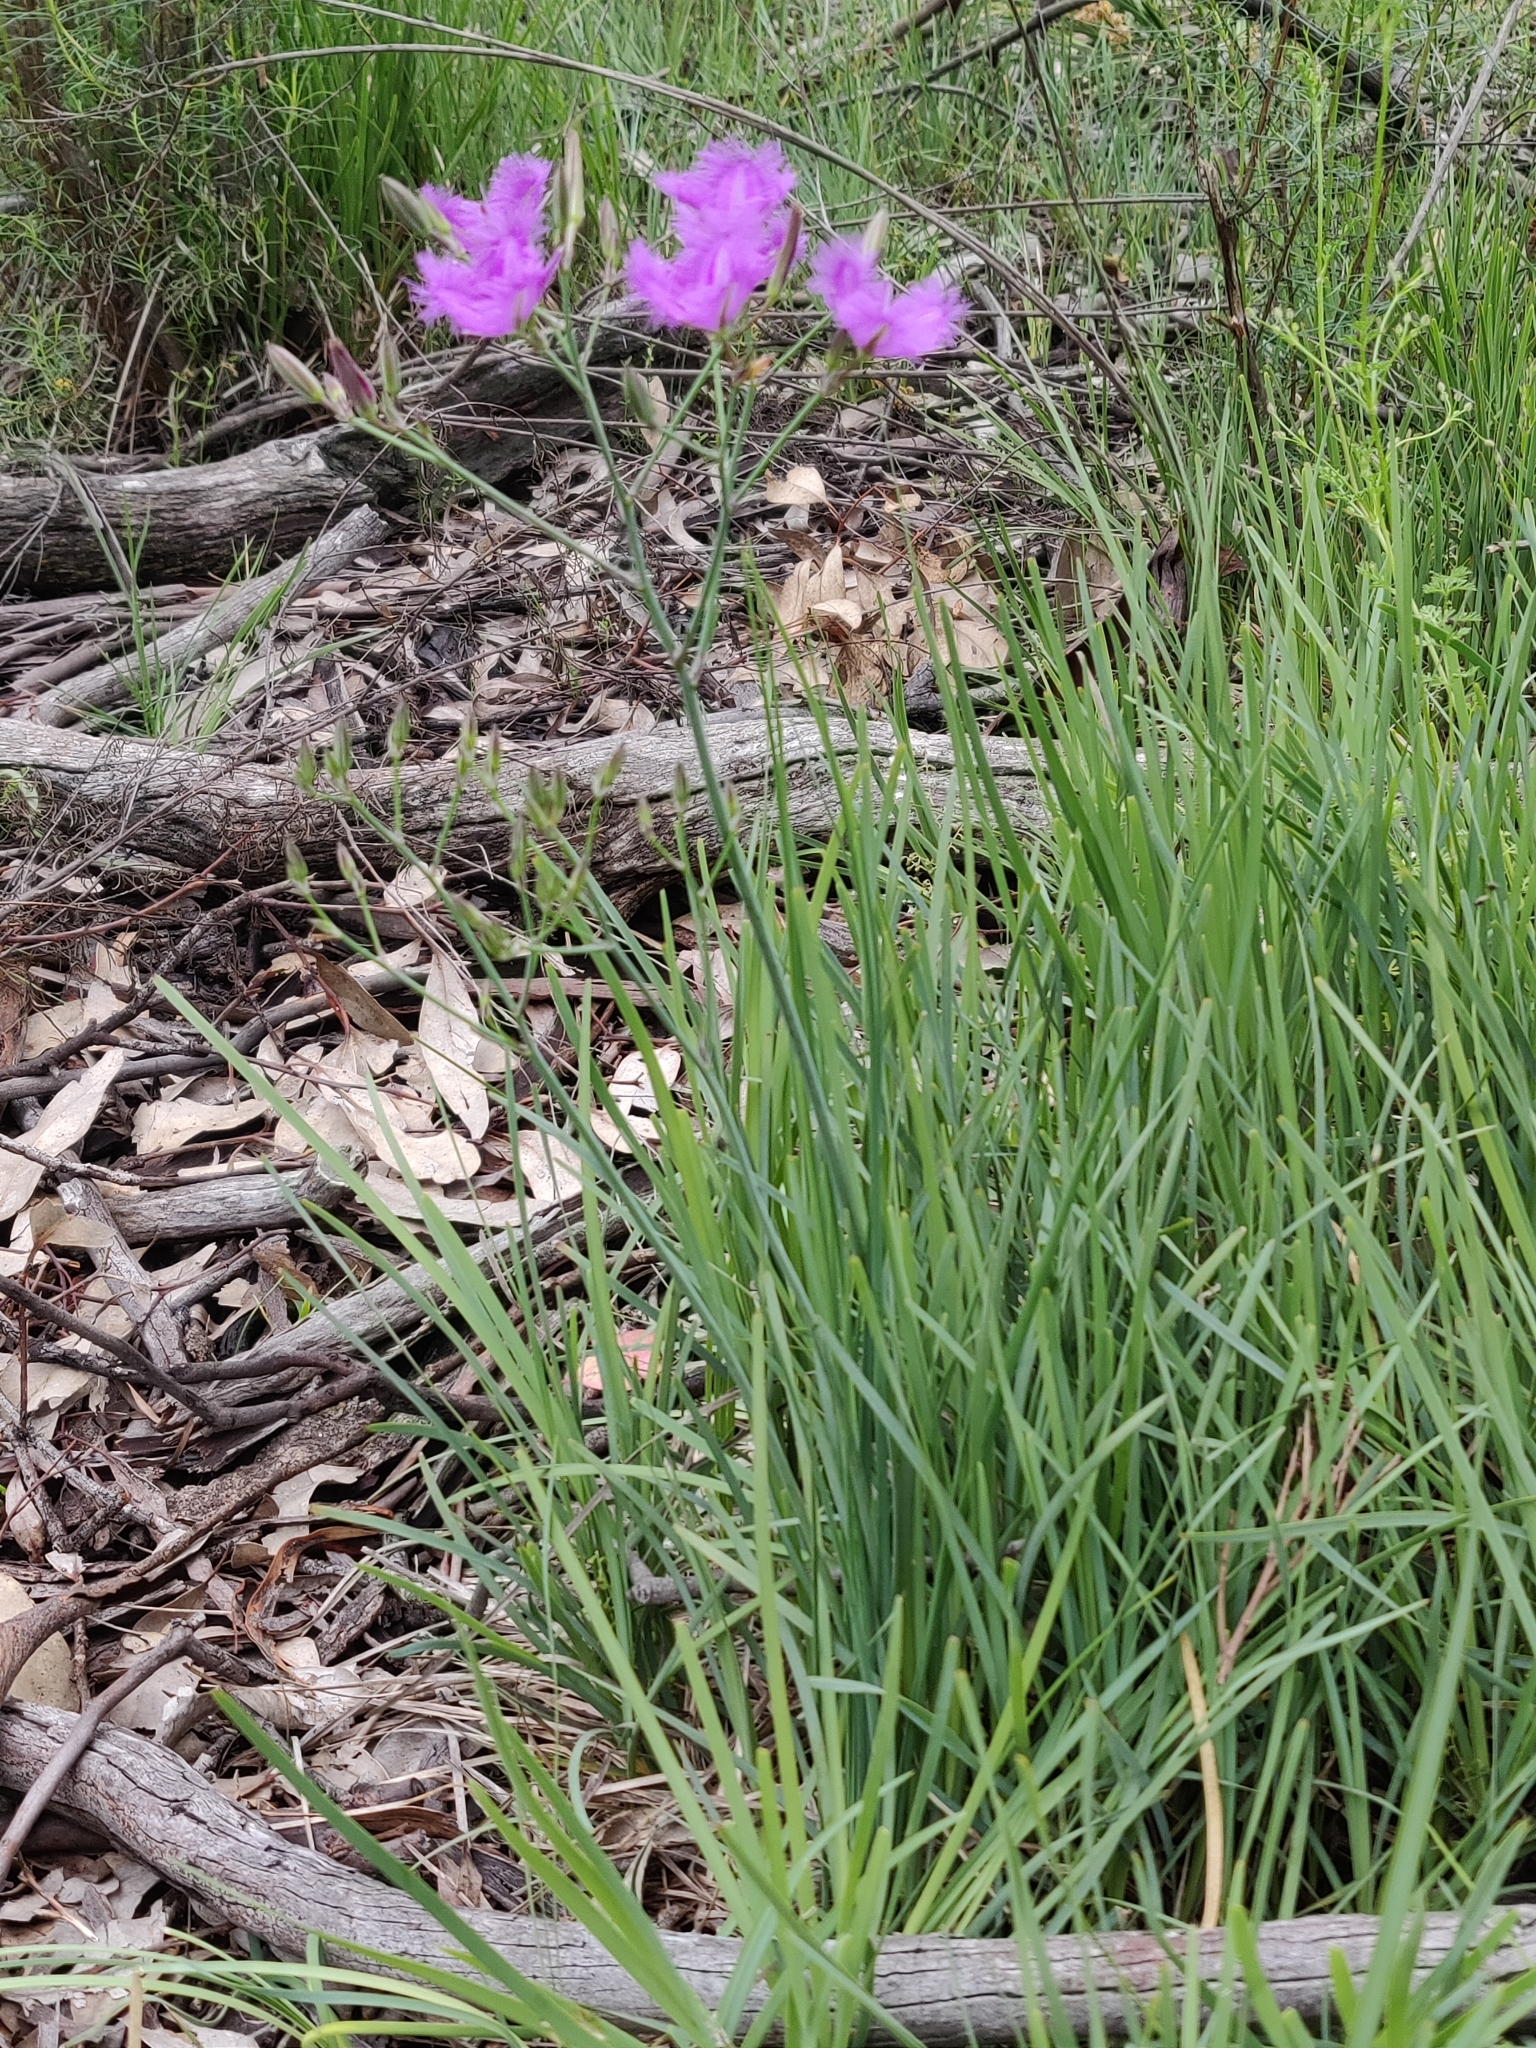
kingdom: Plantae
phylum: Tracheophyta
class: Liliopsida
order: Asparagales
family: Asparagaceae
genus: Thysanotus
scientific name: Thysanotus tuberosus
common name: Common fringed-lily
